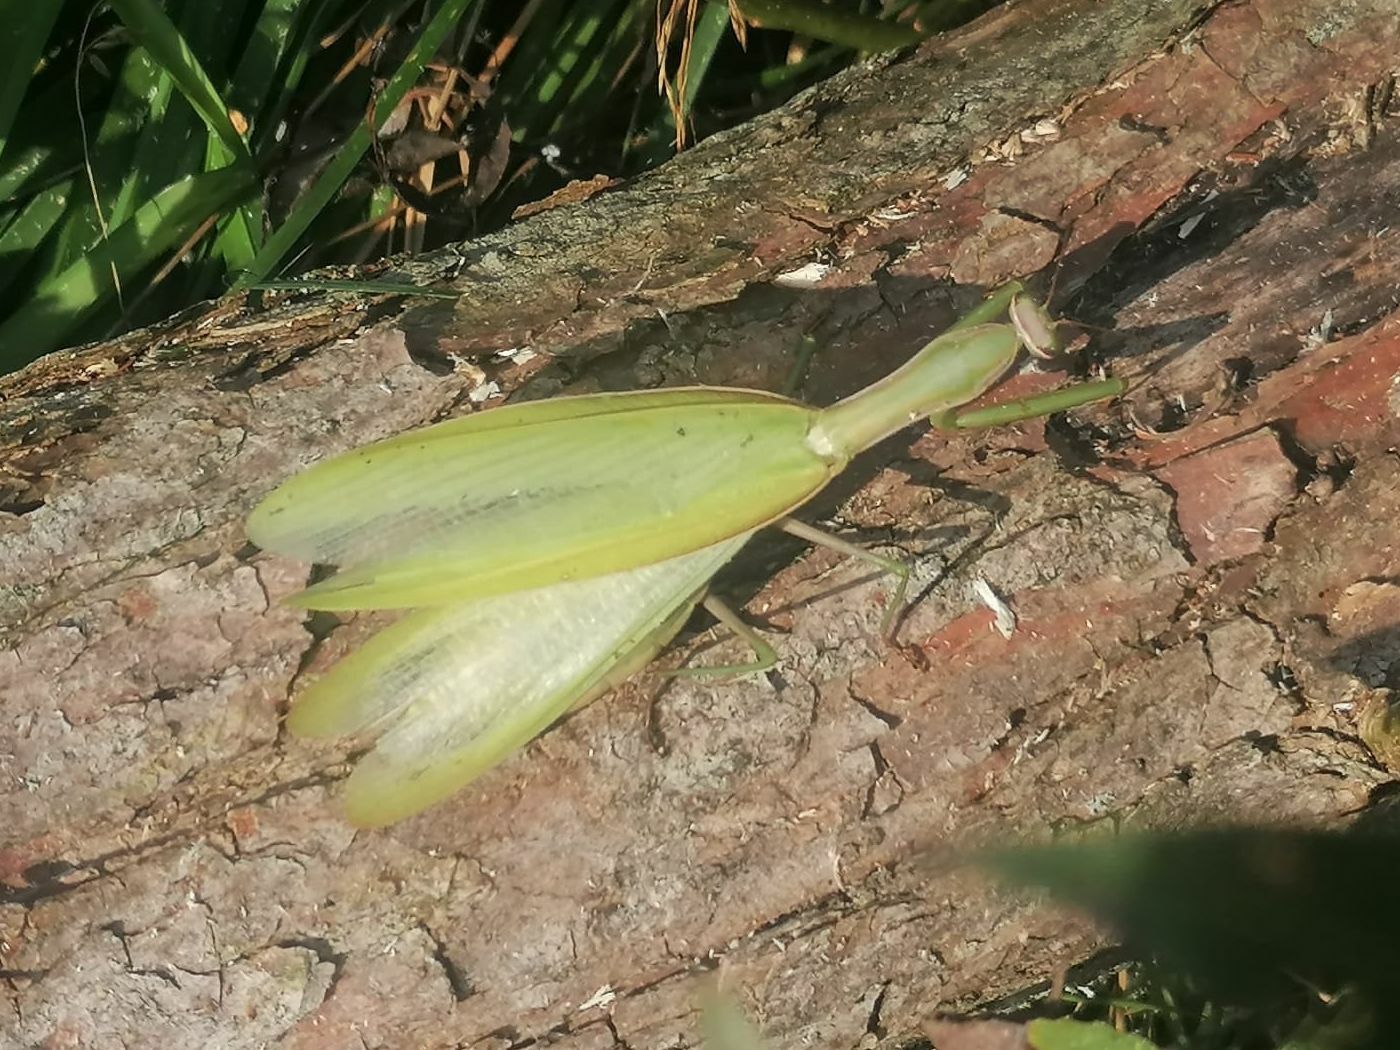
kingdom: Animalia
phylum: Arthropoda
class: Insecta
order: Mantodea
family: Mantidae
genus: Mantis
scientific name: Mantis religiosa
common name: Praying mantis
